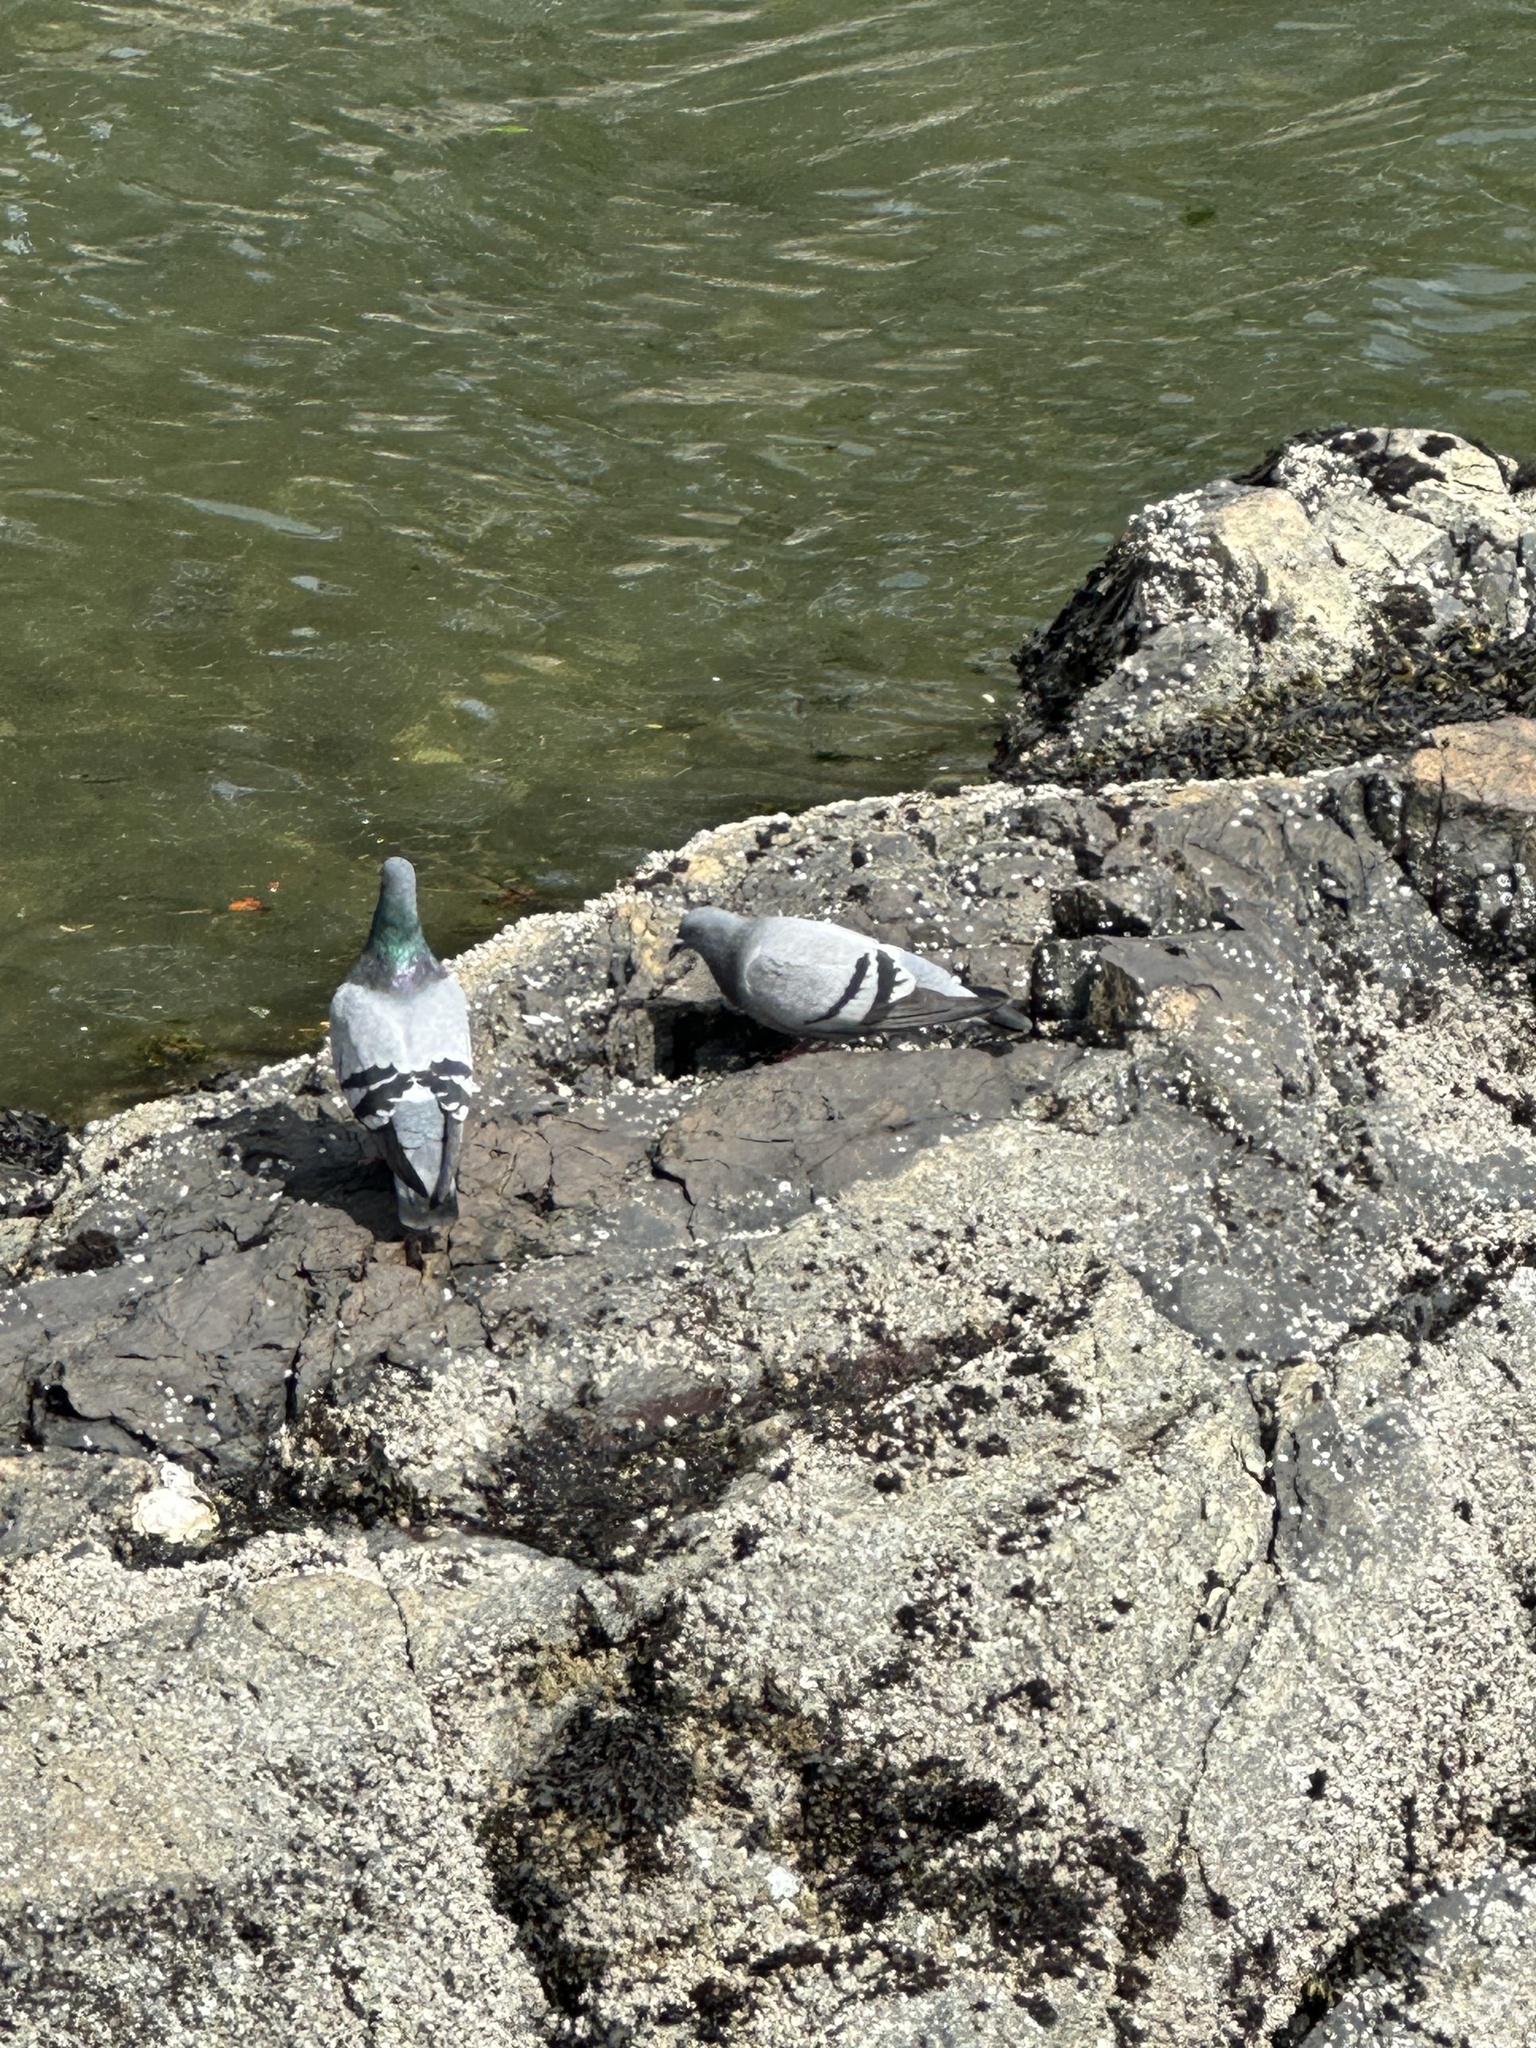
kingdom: Animalia
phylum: Chordata
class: Aves
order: Columbiformes
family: Columbidae
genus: Columba
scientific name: Columba livia
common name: Rock pigeon
